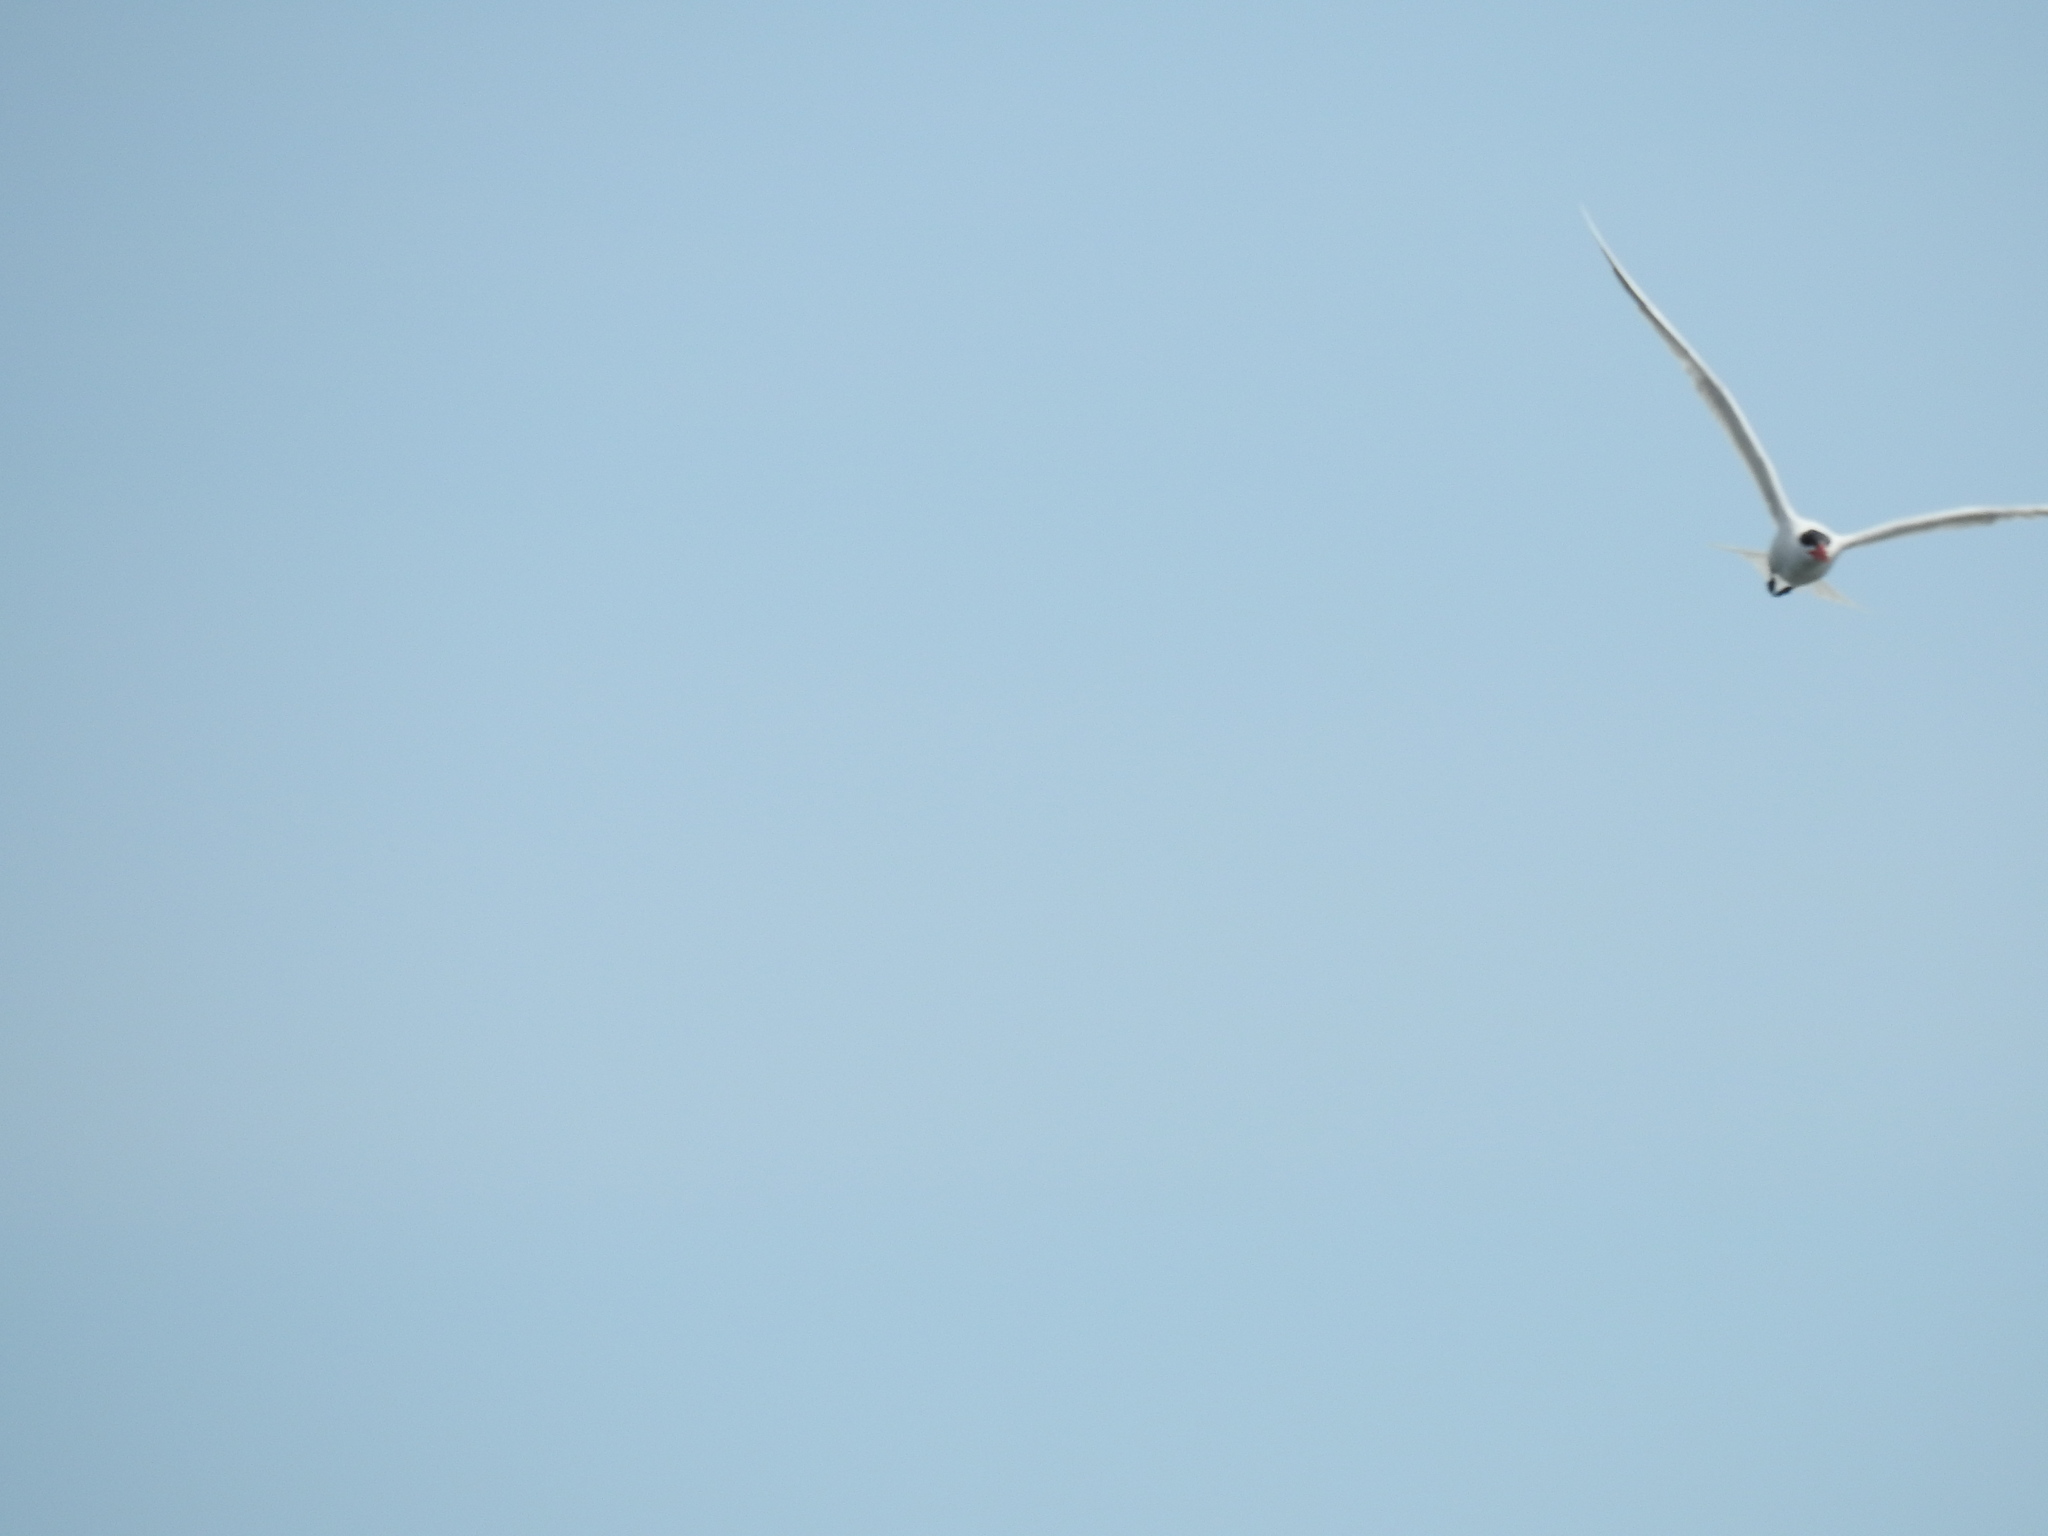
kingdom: Animalia
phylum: Chordata
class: Aves
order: Charadriiformes
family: Laridae
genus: Hydroprogne
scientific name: Hydroprogne caspia
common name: Caspian tern
